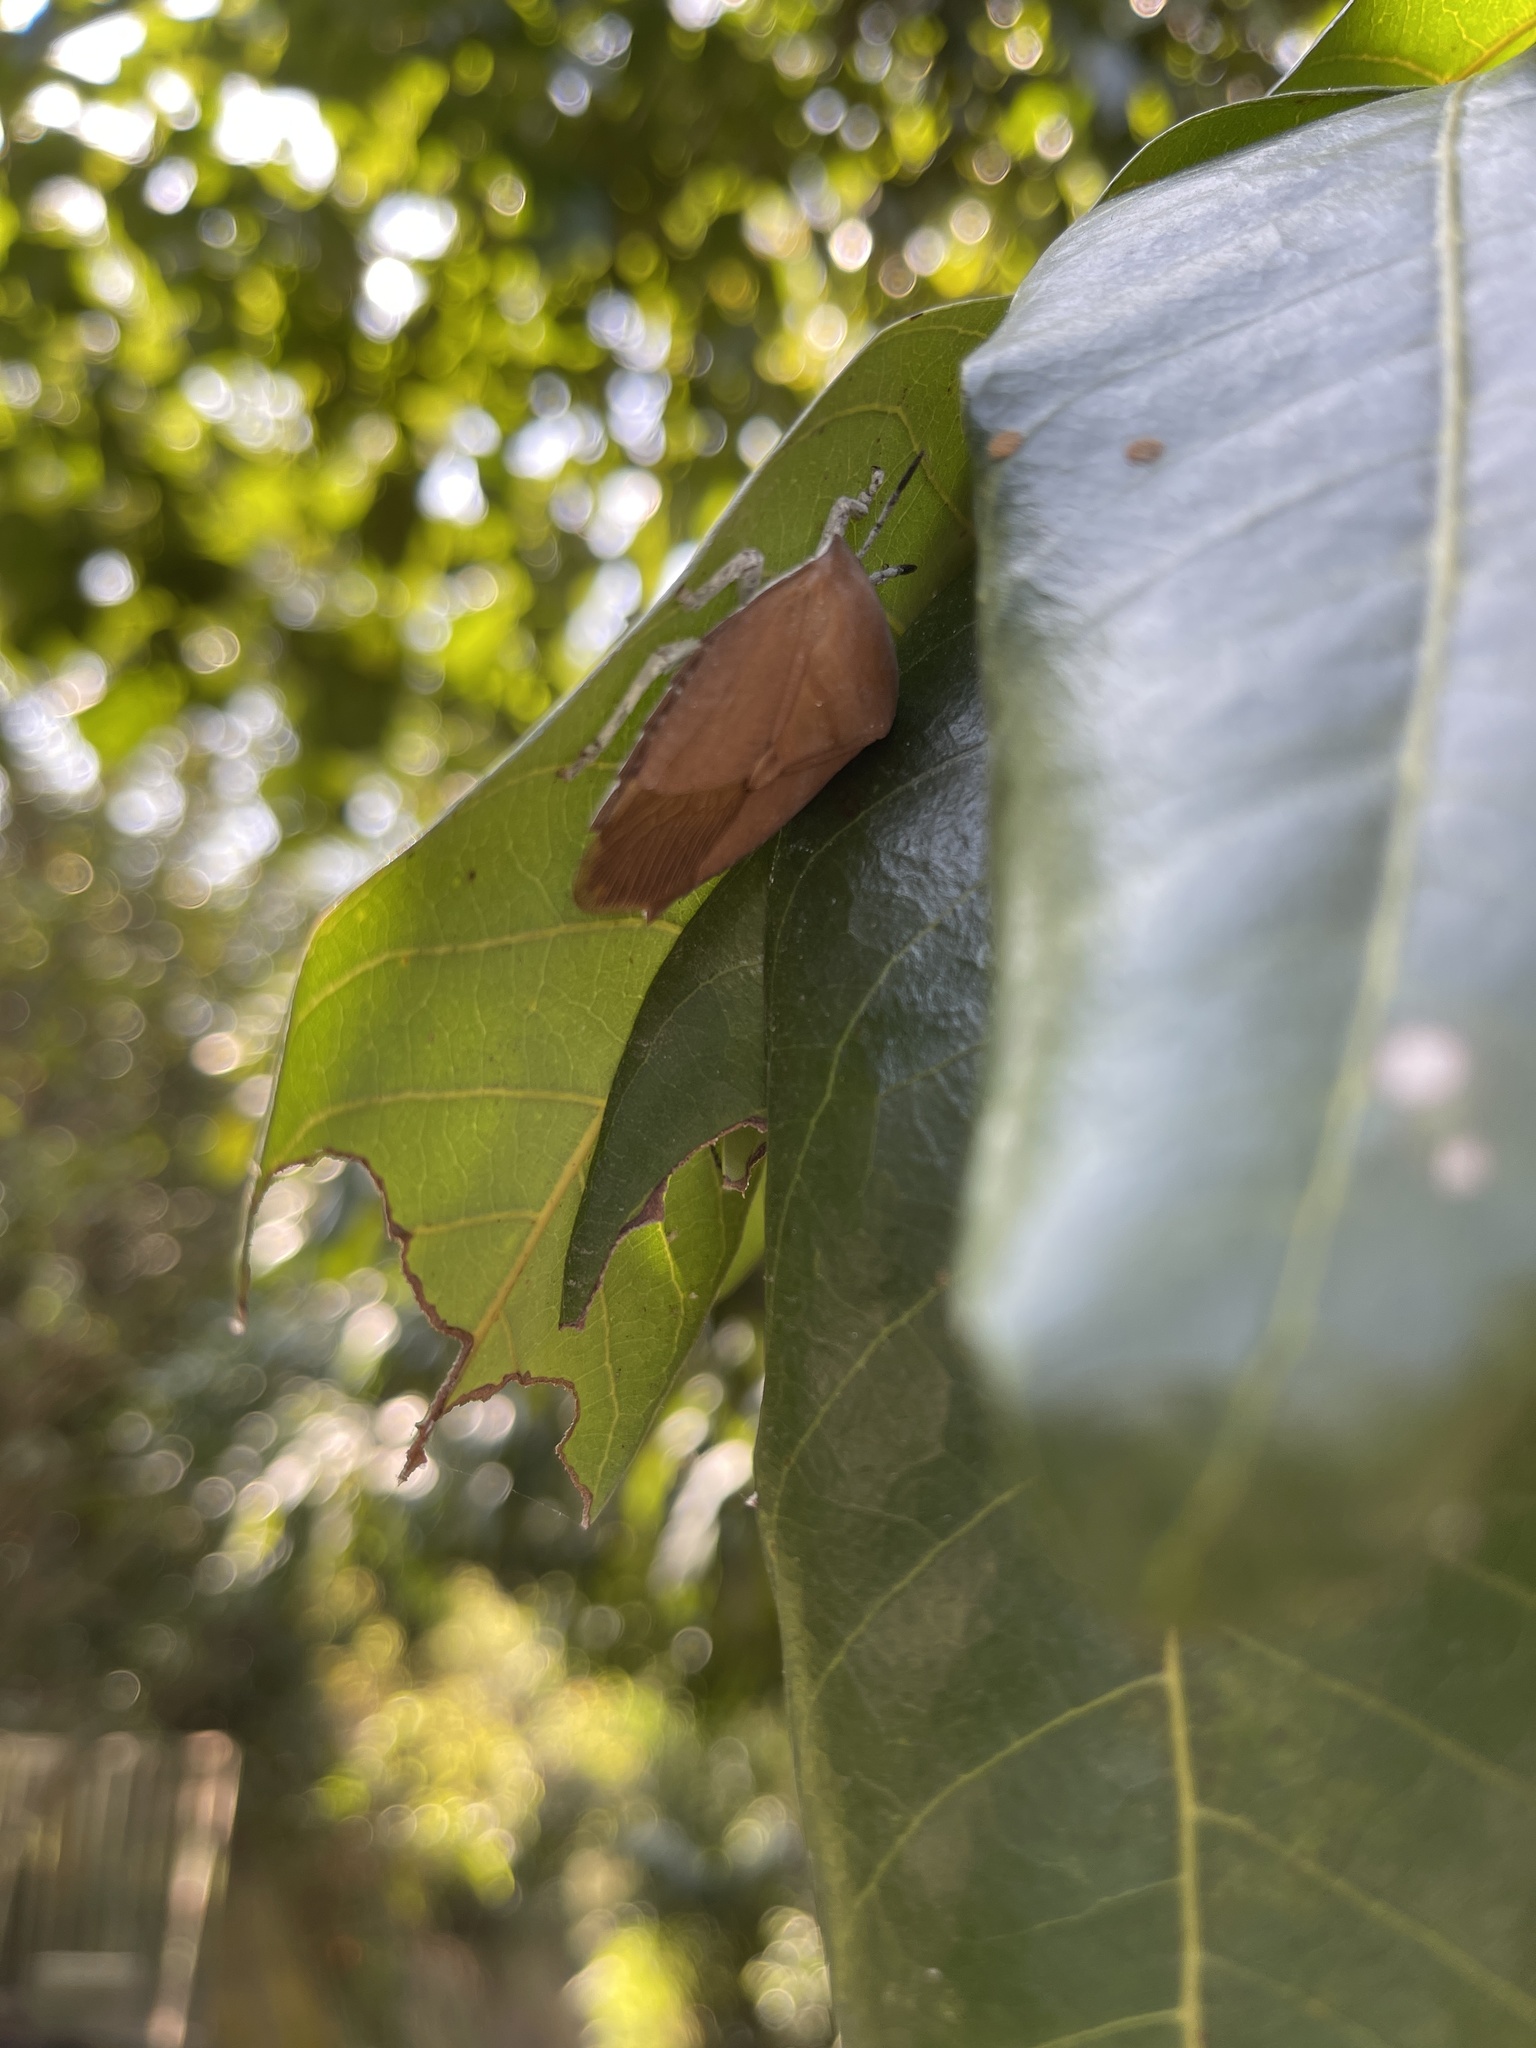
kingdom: Animalia
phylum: Arthropoda
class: Insecta
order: Hemiptera
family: Tessaratomidae
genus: Tessaratoma
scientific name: Tessaratoma papillosa
